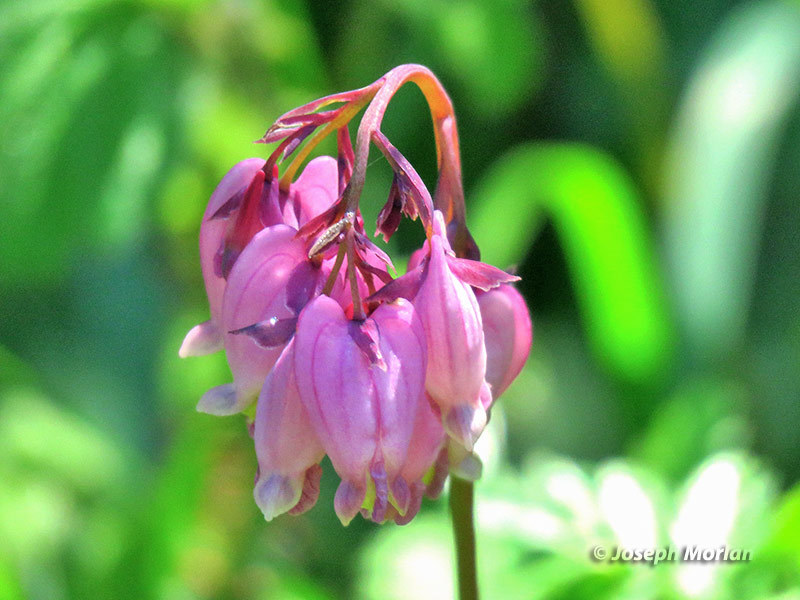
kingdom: Plantae
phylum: Tracheophyta
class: Magnoliopsida
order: Ranunculales
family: Papaveraceae
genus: Dicentra
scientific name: Dicentra formosa
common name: Bleeding-heart
